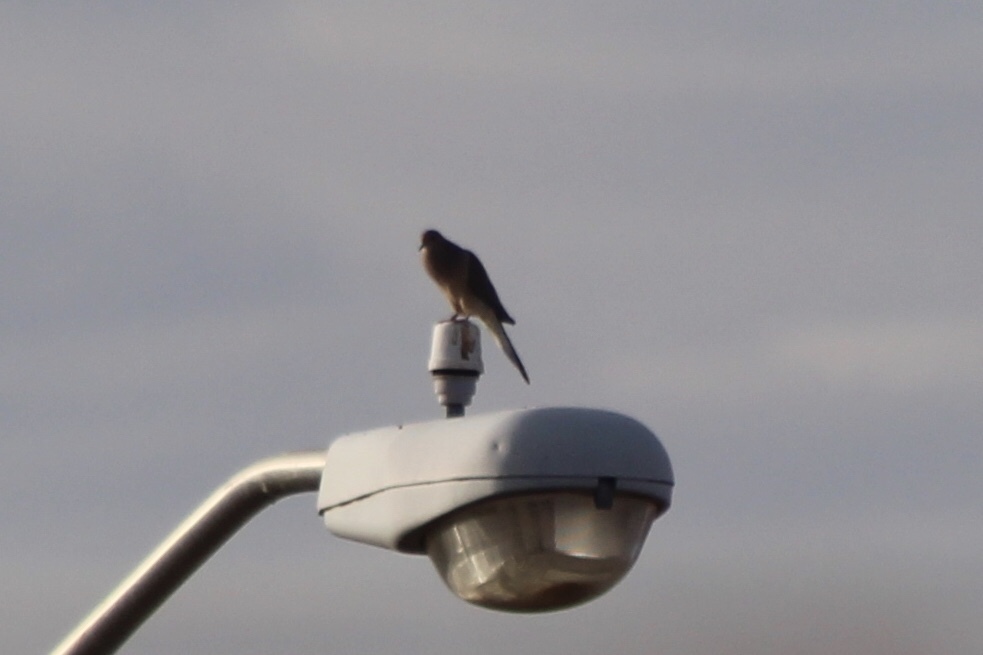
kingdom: Animalia
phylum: Chordata
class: Aves
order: Columbiformes
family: Columbidae
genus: Zenaida
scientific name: Zenaida macroura
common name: Mourning dove
